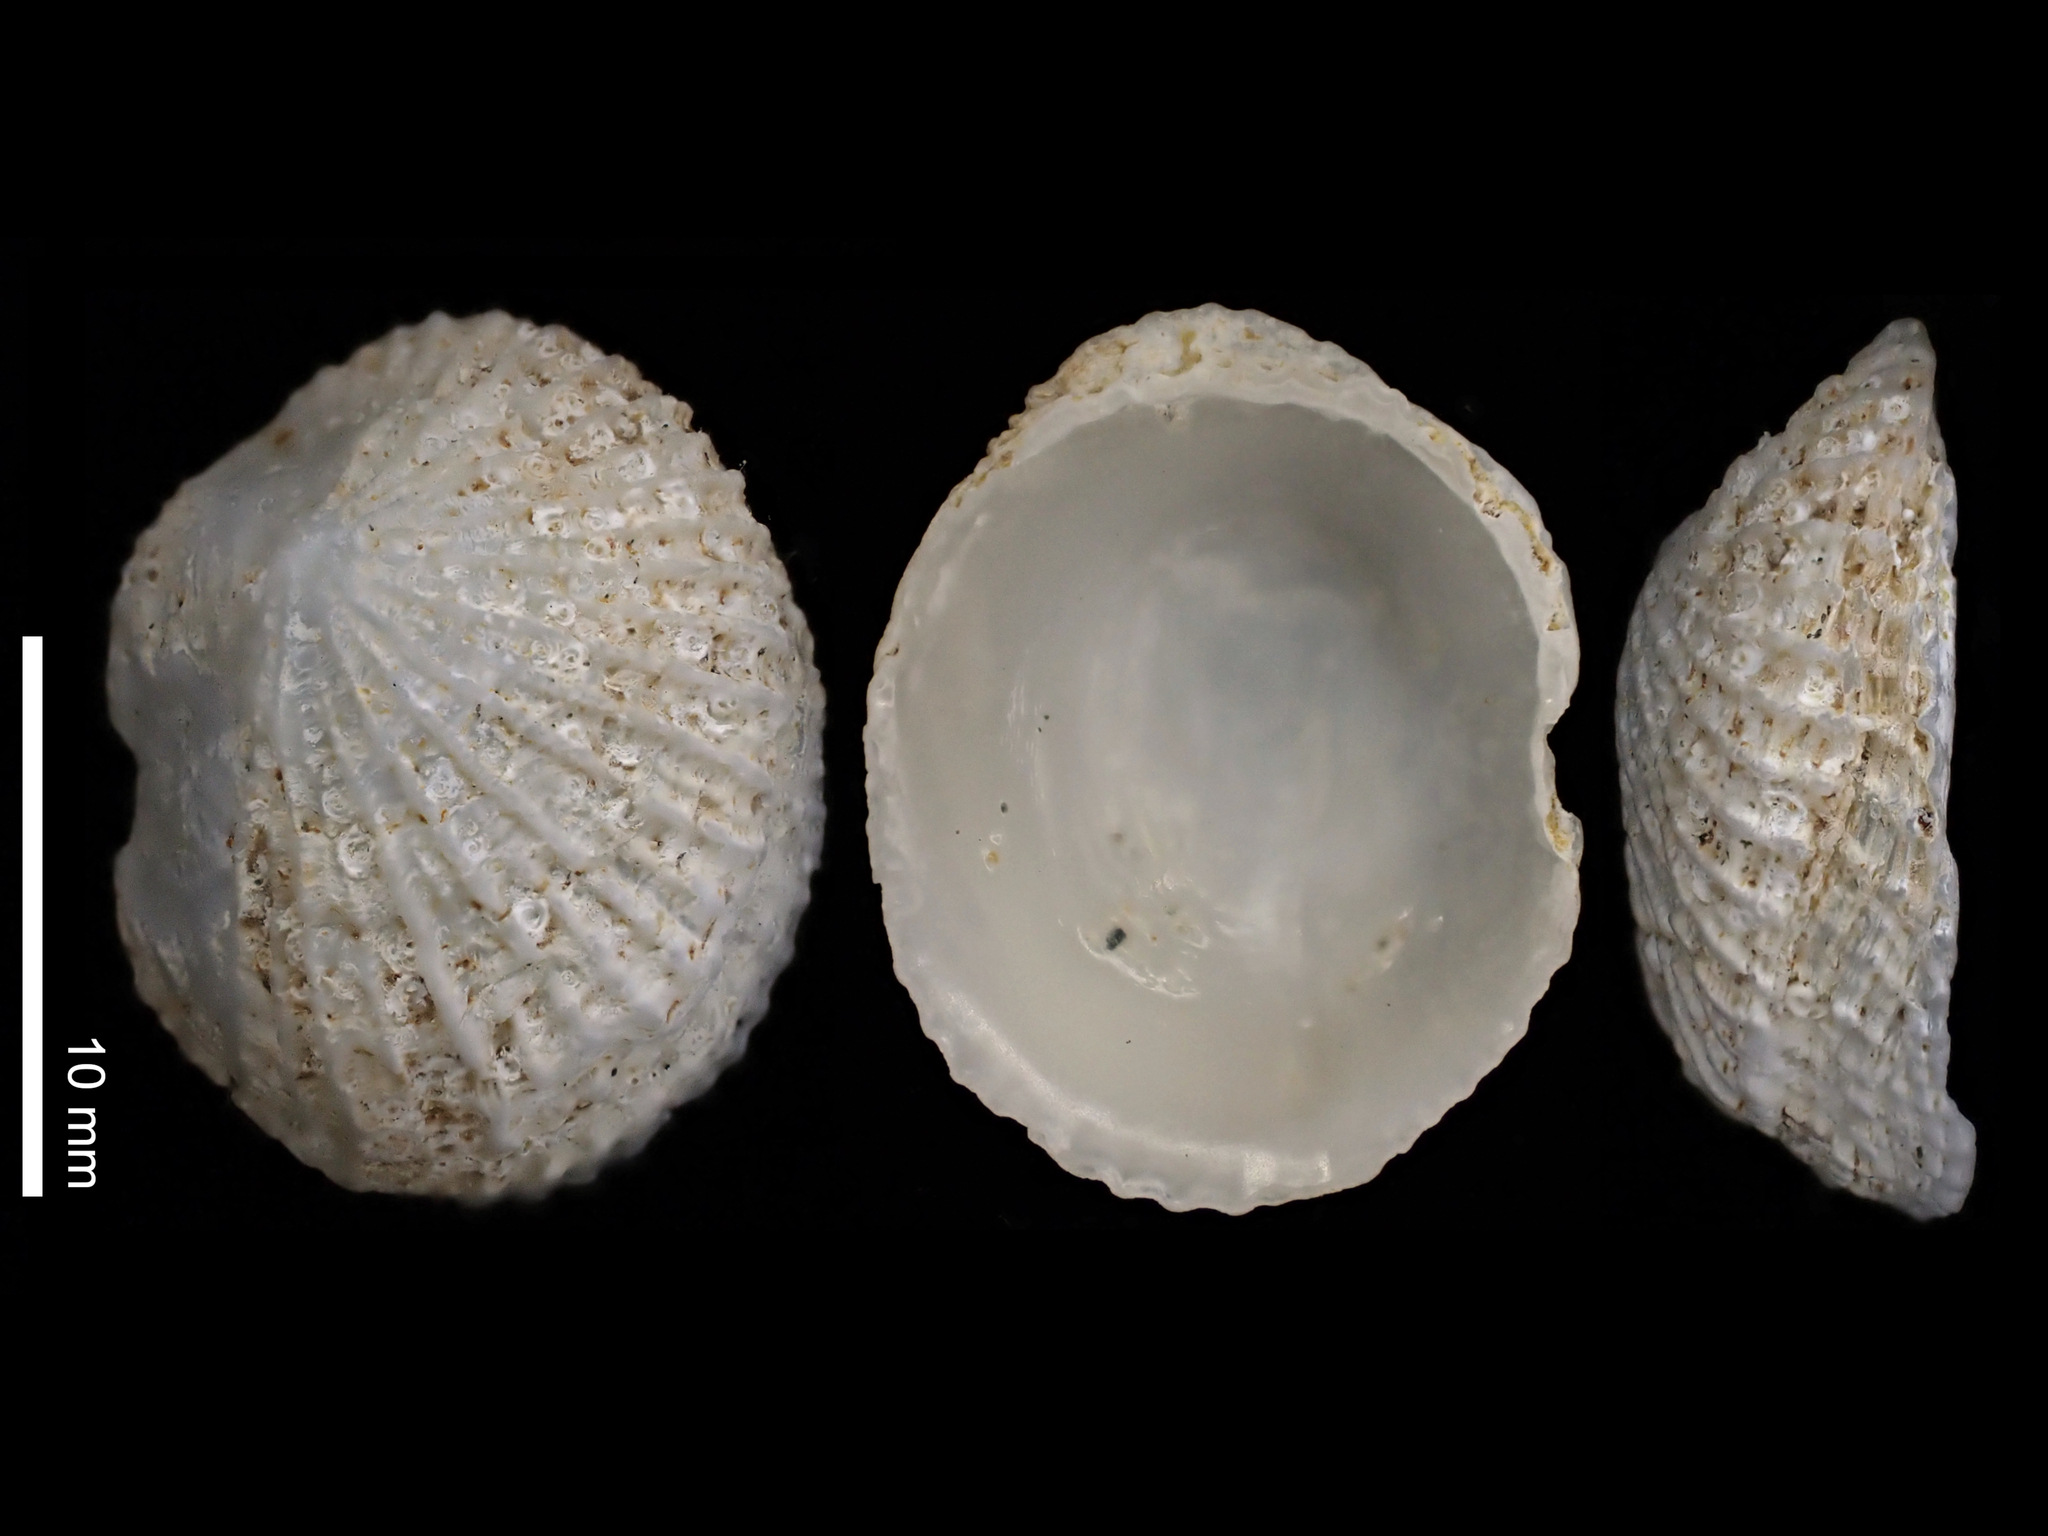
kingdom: Animalia
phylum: Mollusca
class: Gastropoda
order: Ellobiida
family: Trimusculidae
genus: Trimusculus
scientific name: Trimusculus conicus
